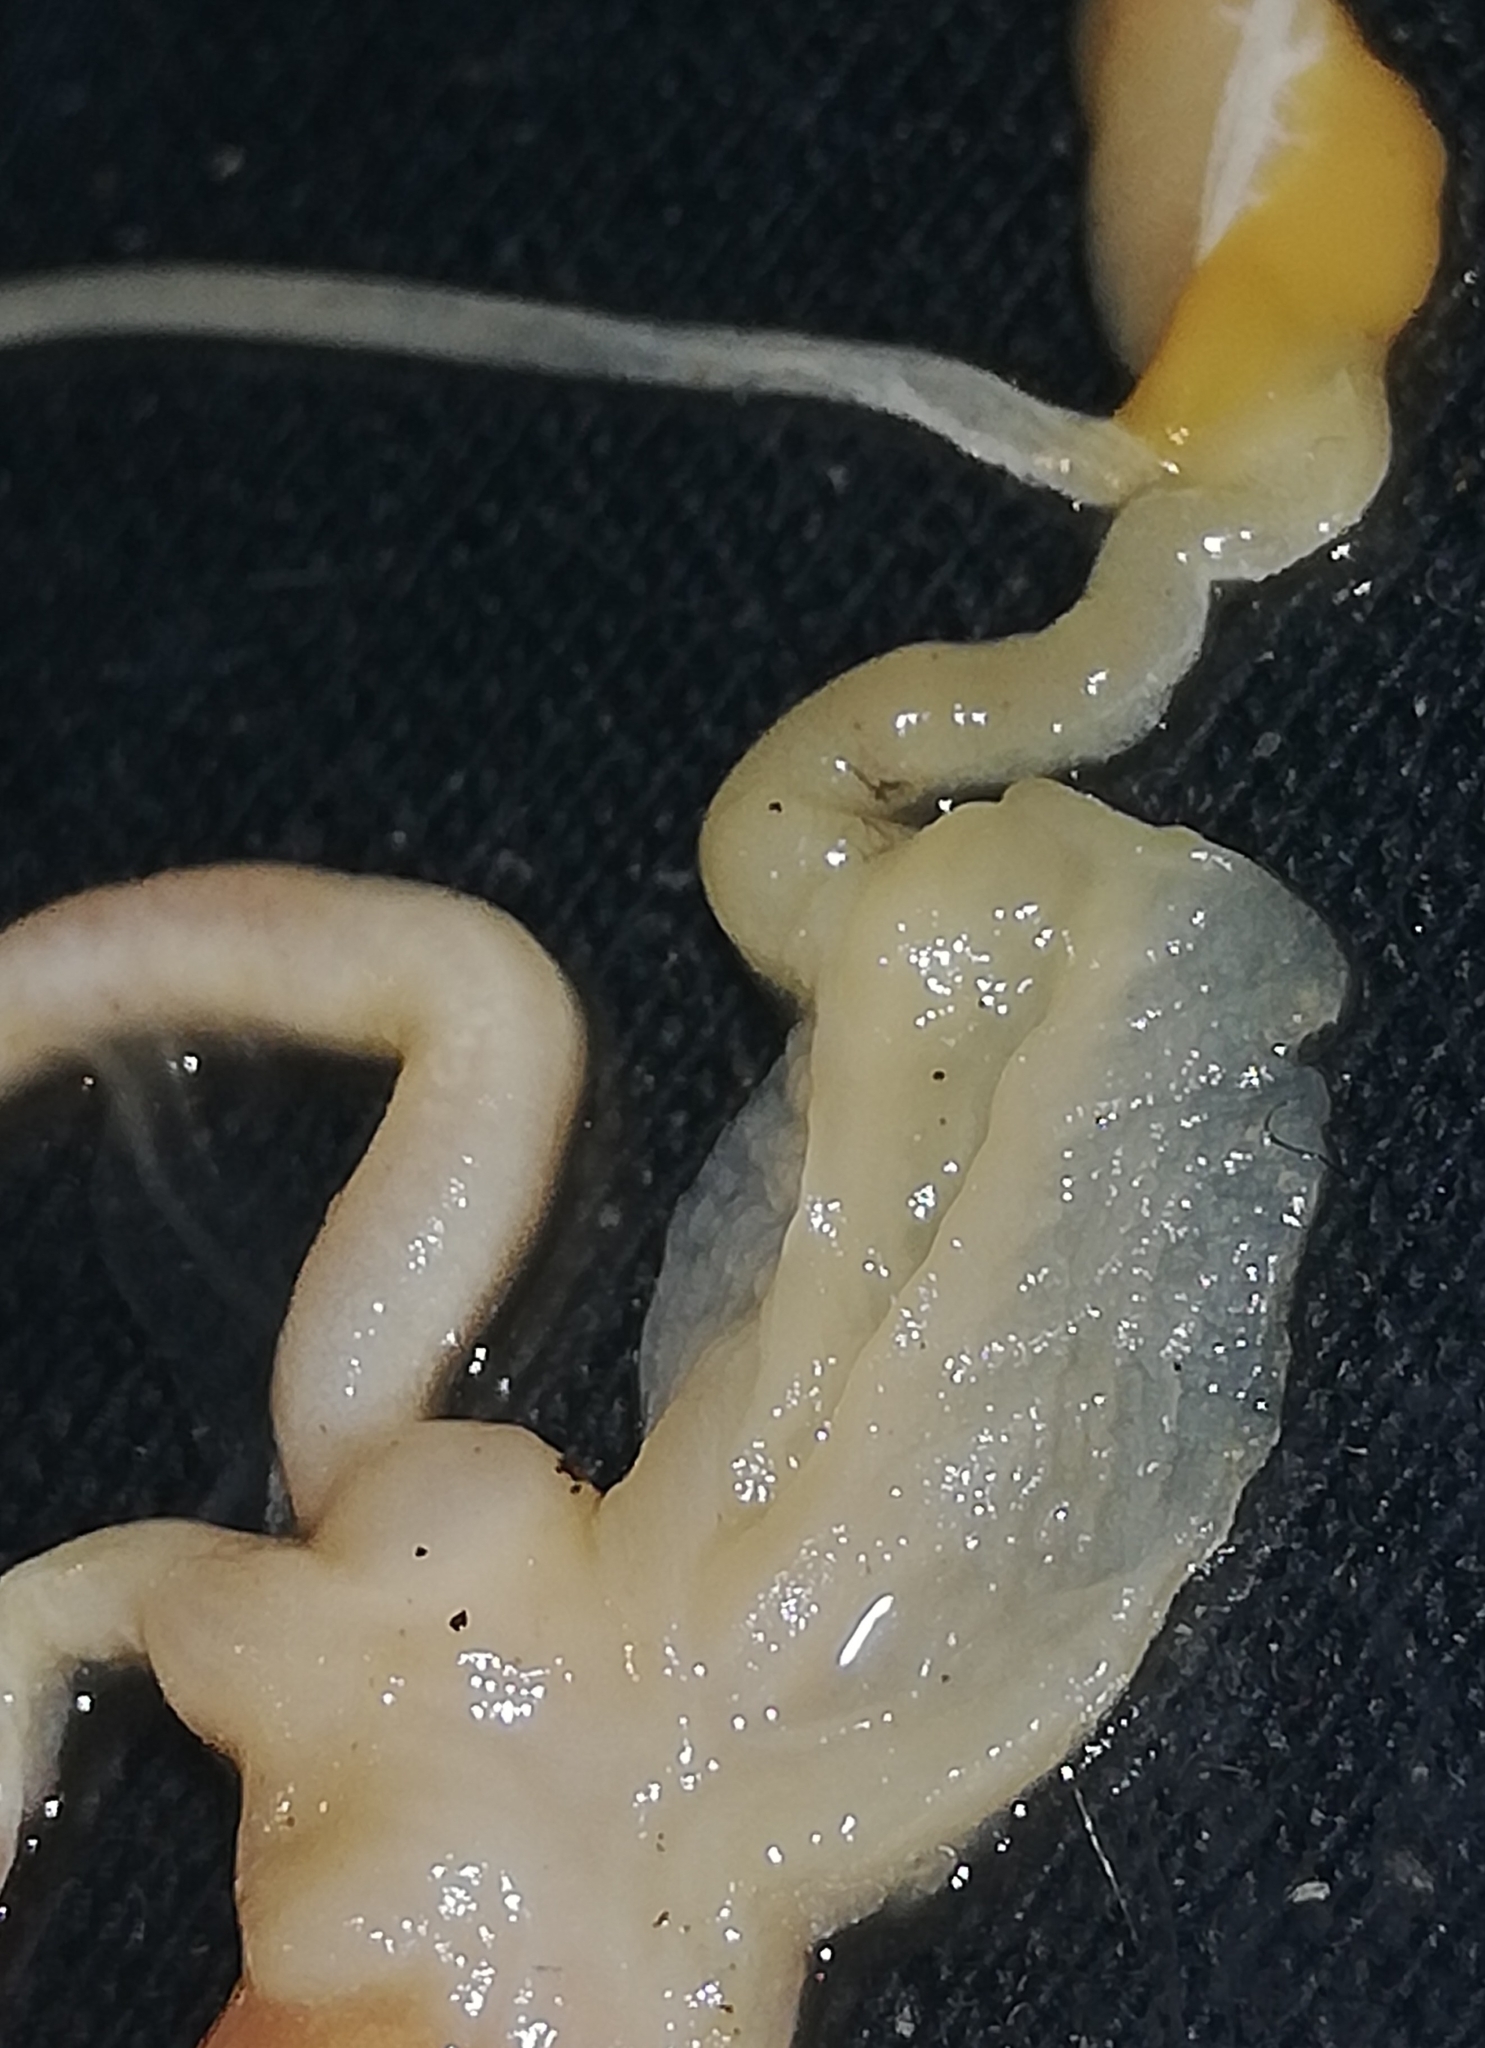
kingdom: Animalia
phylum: Mollusca
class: Gastropoda
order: Stylommatophora
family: Arionidae
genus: Arion
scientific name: Arion vulgaris
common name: Lusitanian slug
